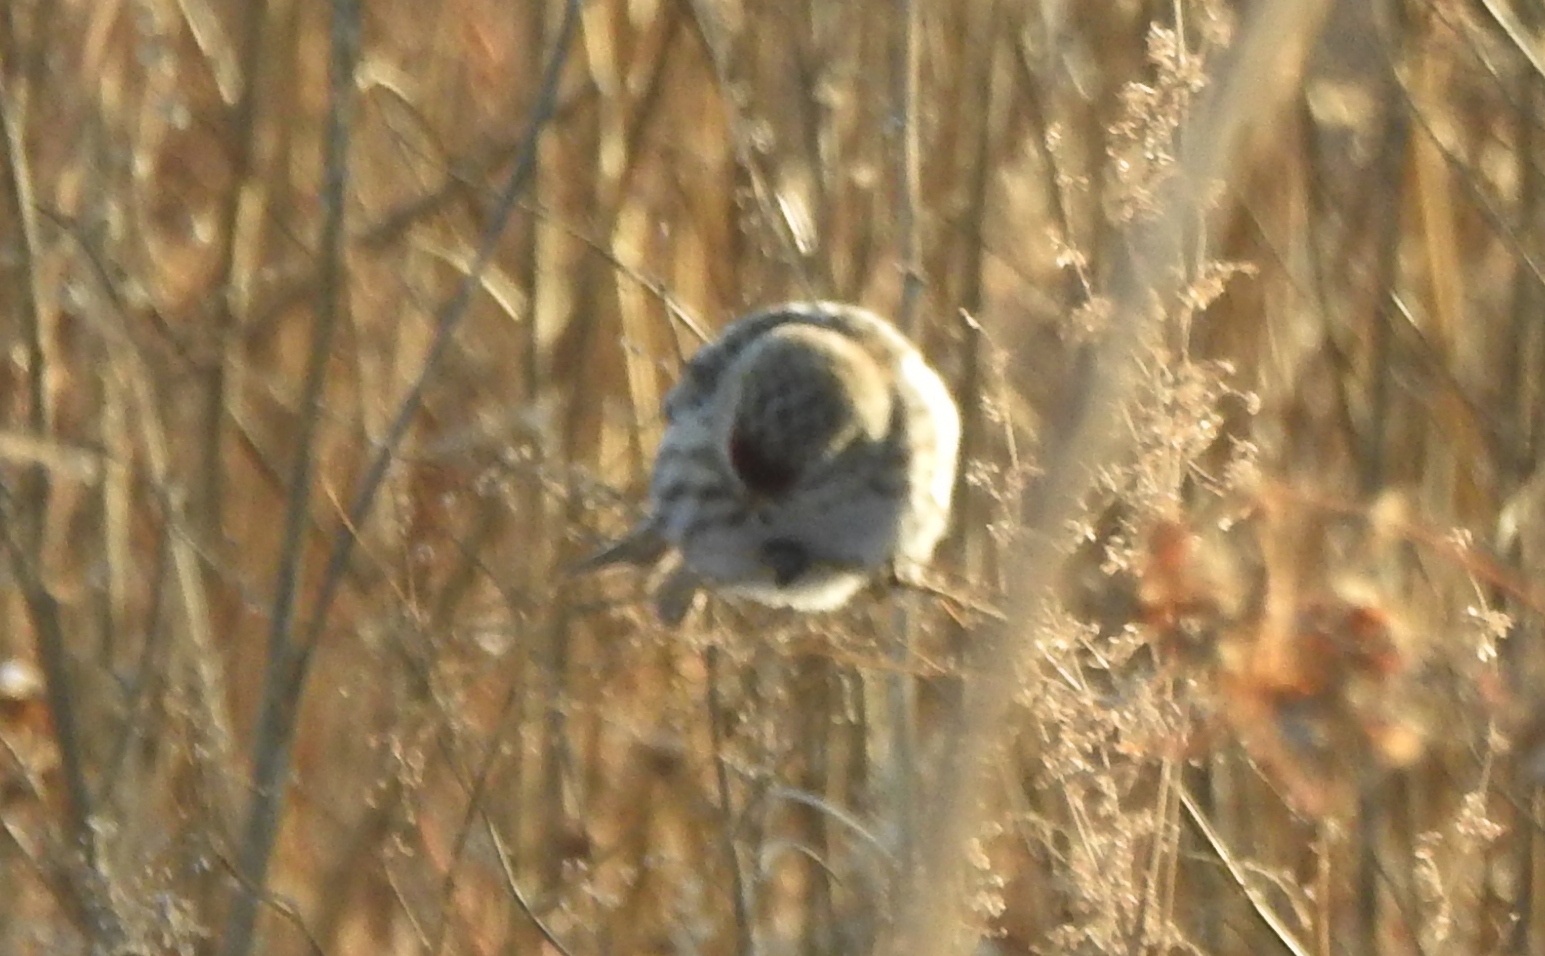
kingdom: Animalia
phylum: Chordata
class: Aves
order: Passeriformes
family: Fringillidae
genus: Acanthis
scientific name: Acanthis flammea
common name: Common redpoll
